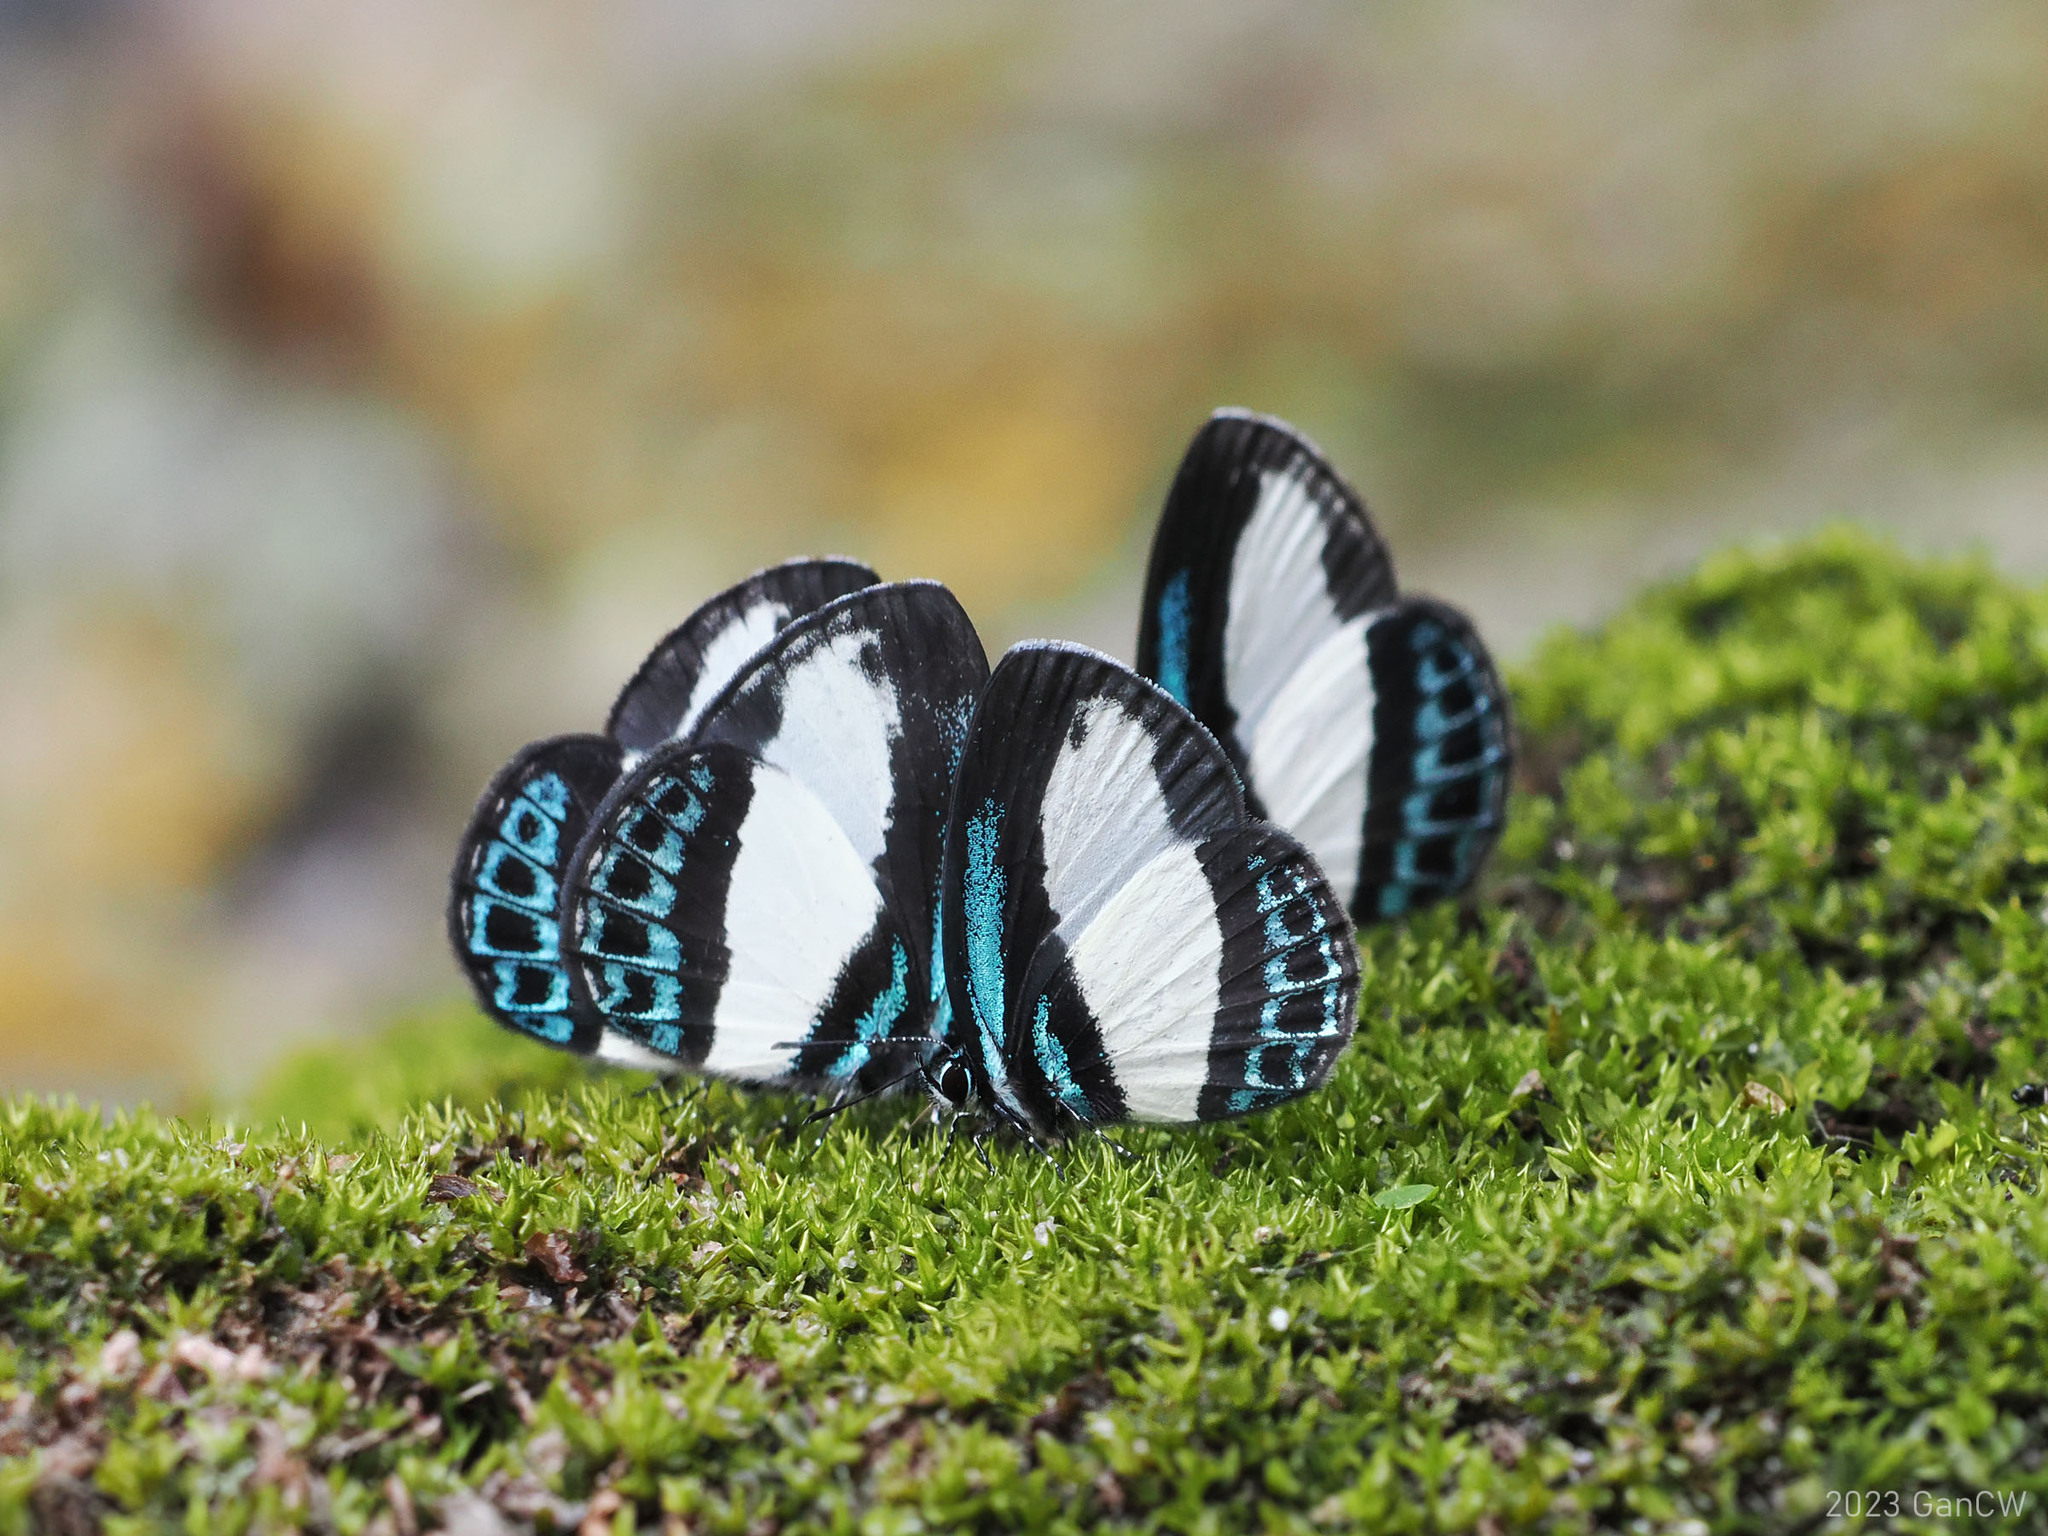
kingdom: Animalia
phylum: Arthropoda
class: Insecta
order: Lepidoptera
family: Lycaenidae
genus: Psychonotis
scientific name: Psychonotis caelius
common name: Small green banded blue
